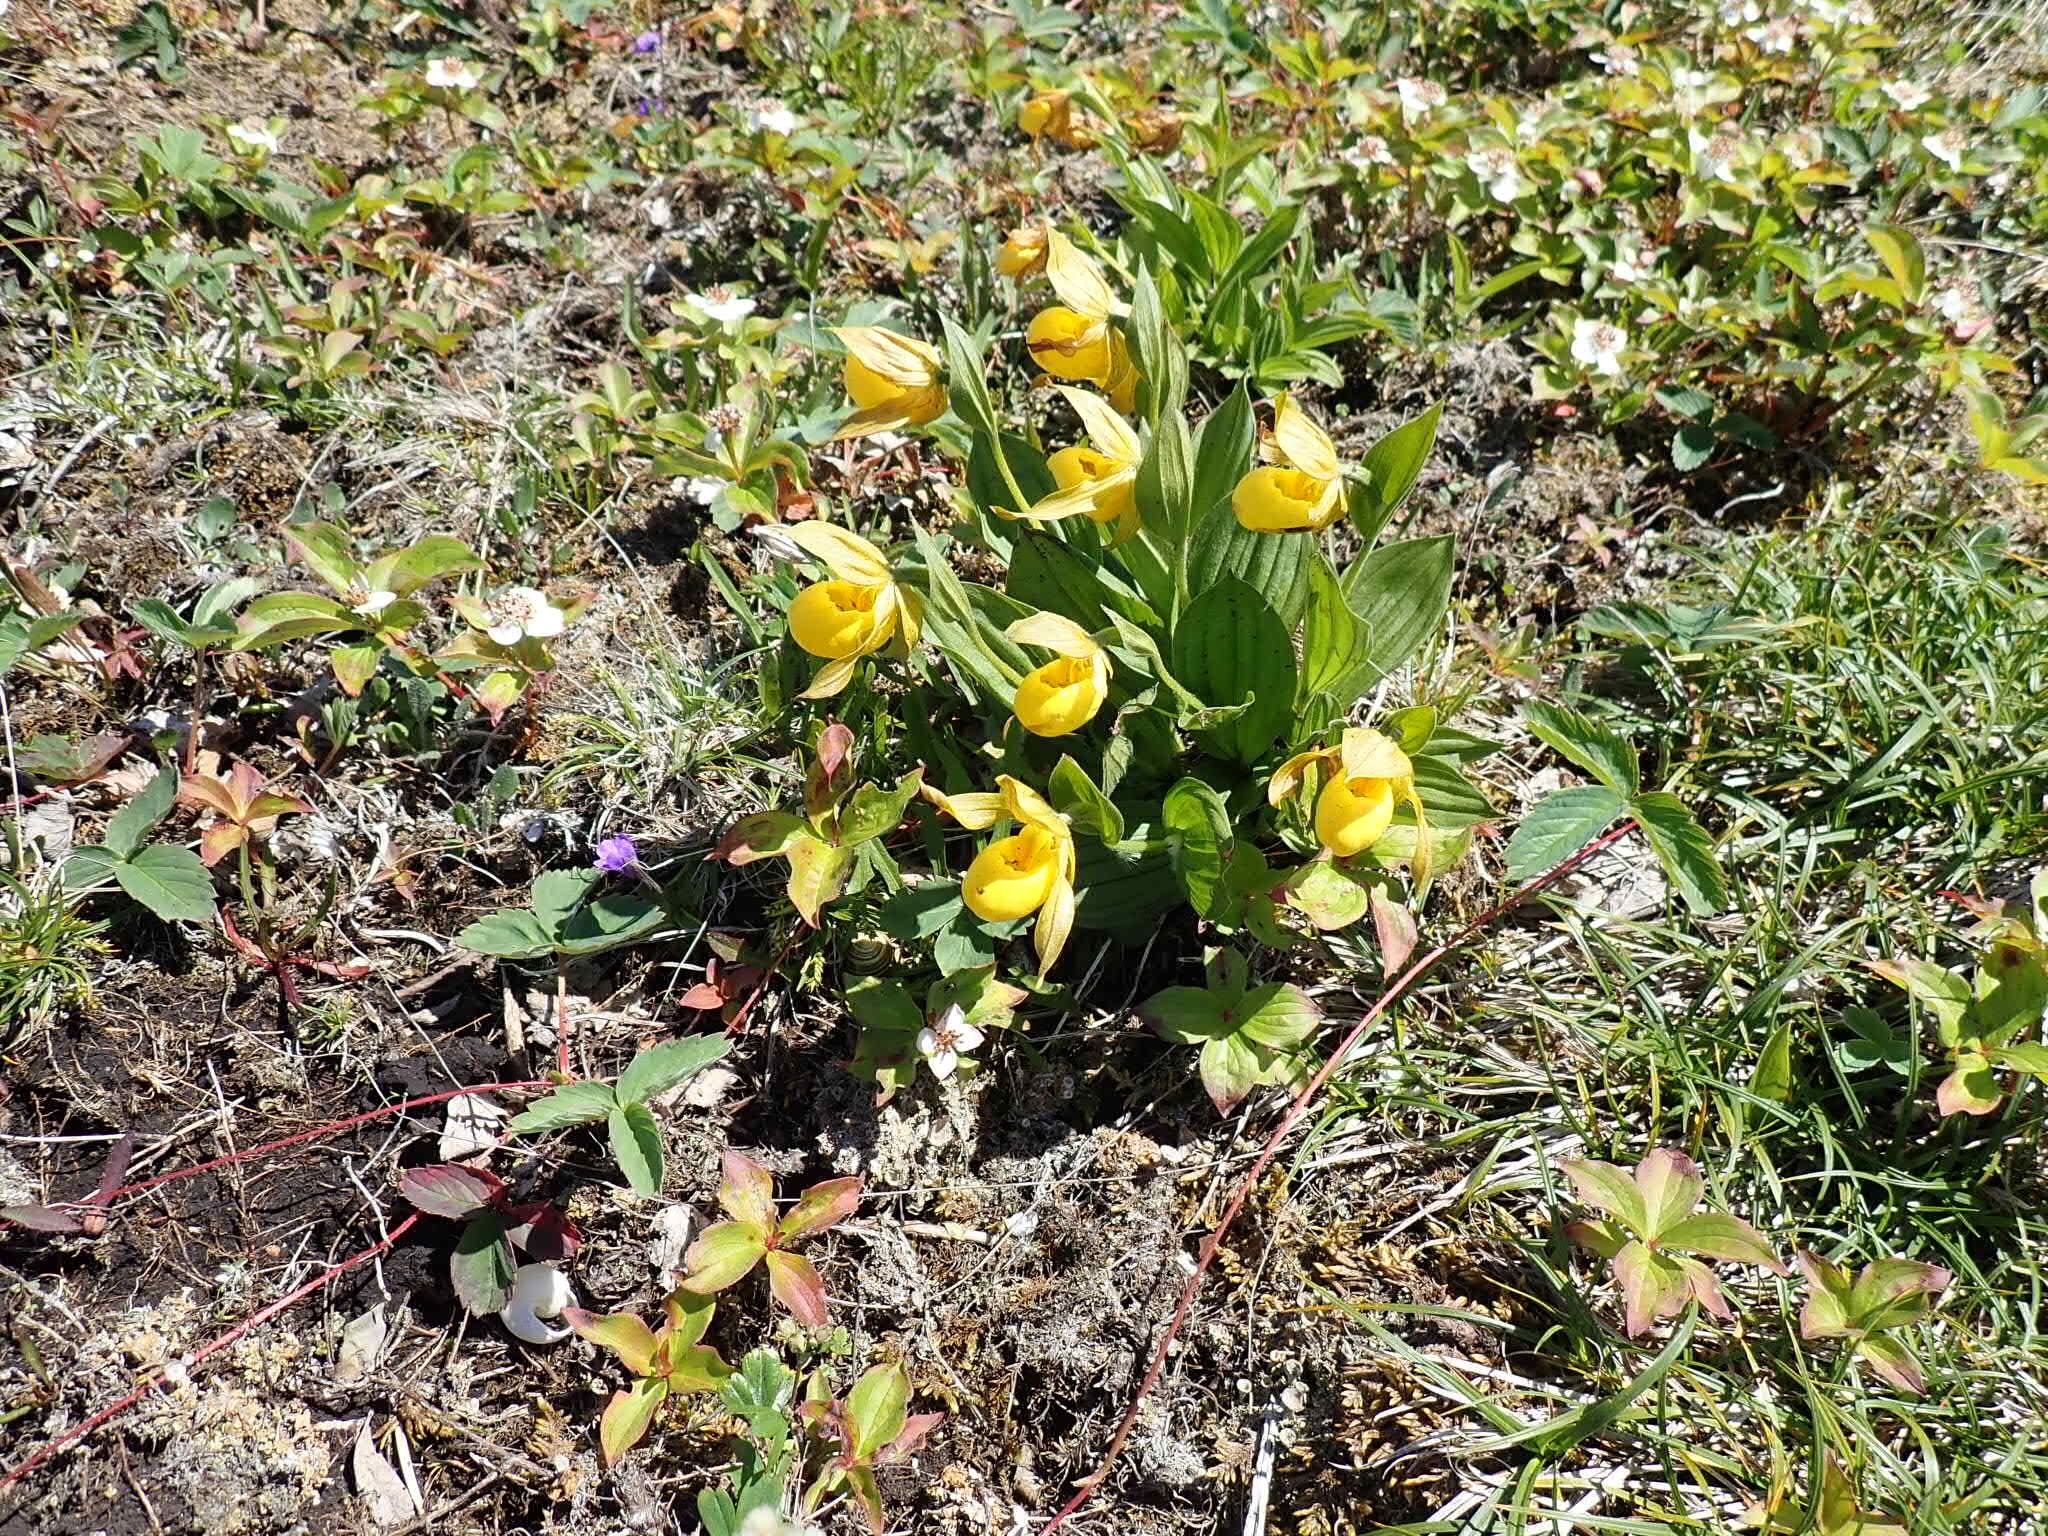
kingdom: Plantae
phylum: Tracheophyta
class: Liliopsida
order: Asparagales
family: Orchidaceae
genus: Cypripedium
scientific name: Cypripedium parviflorum
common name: American yellow lady's-slipper
